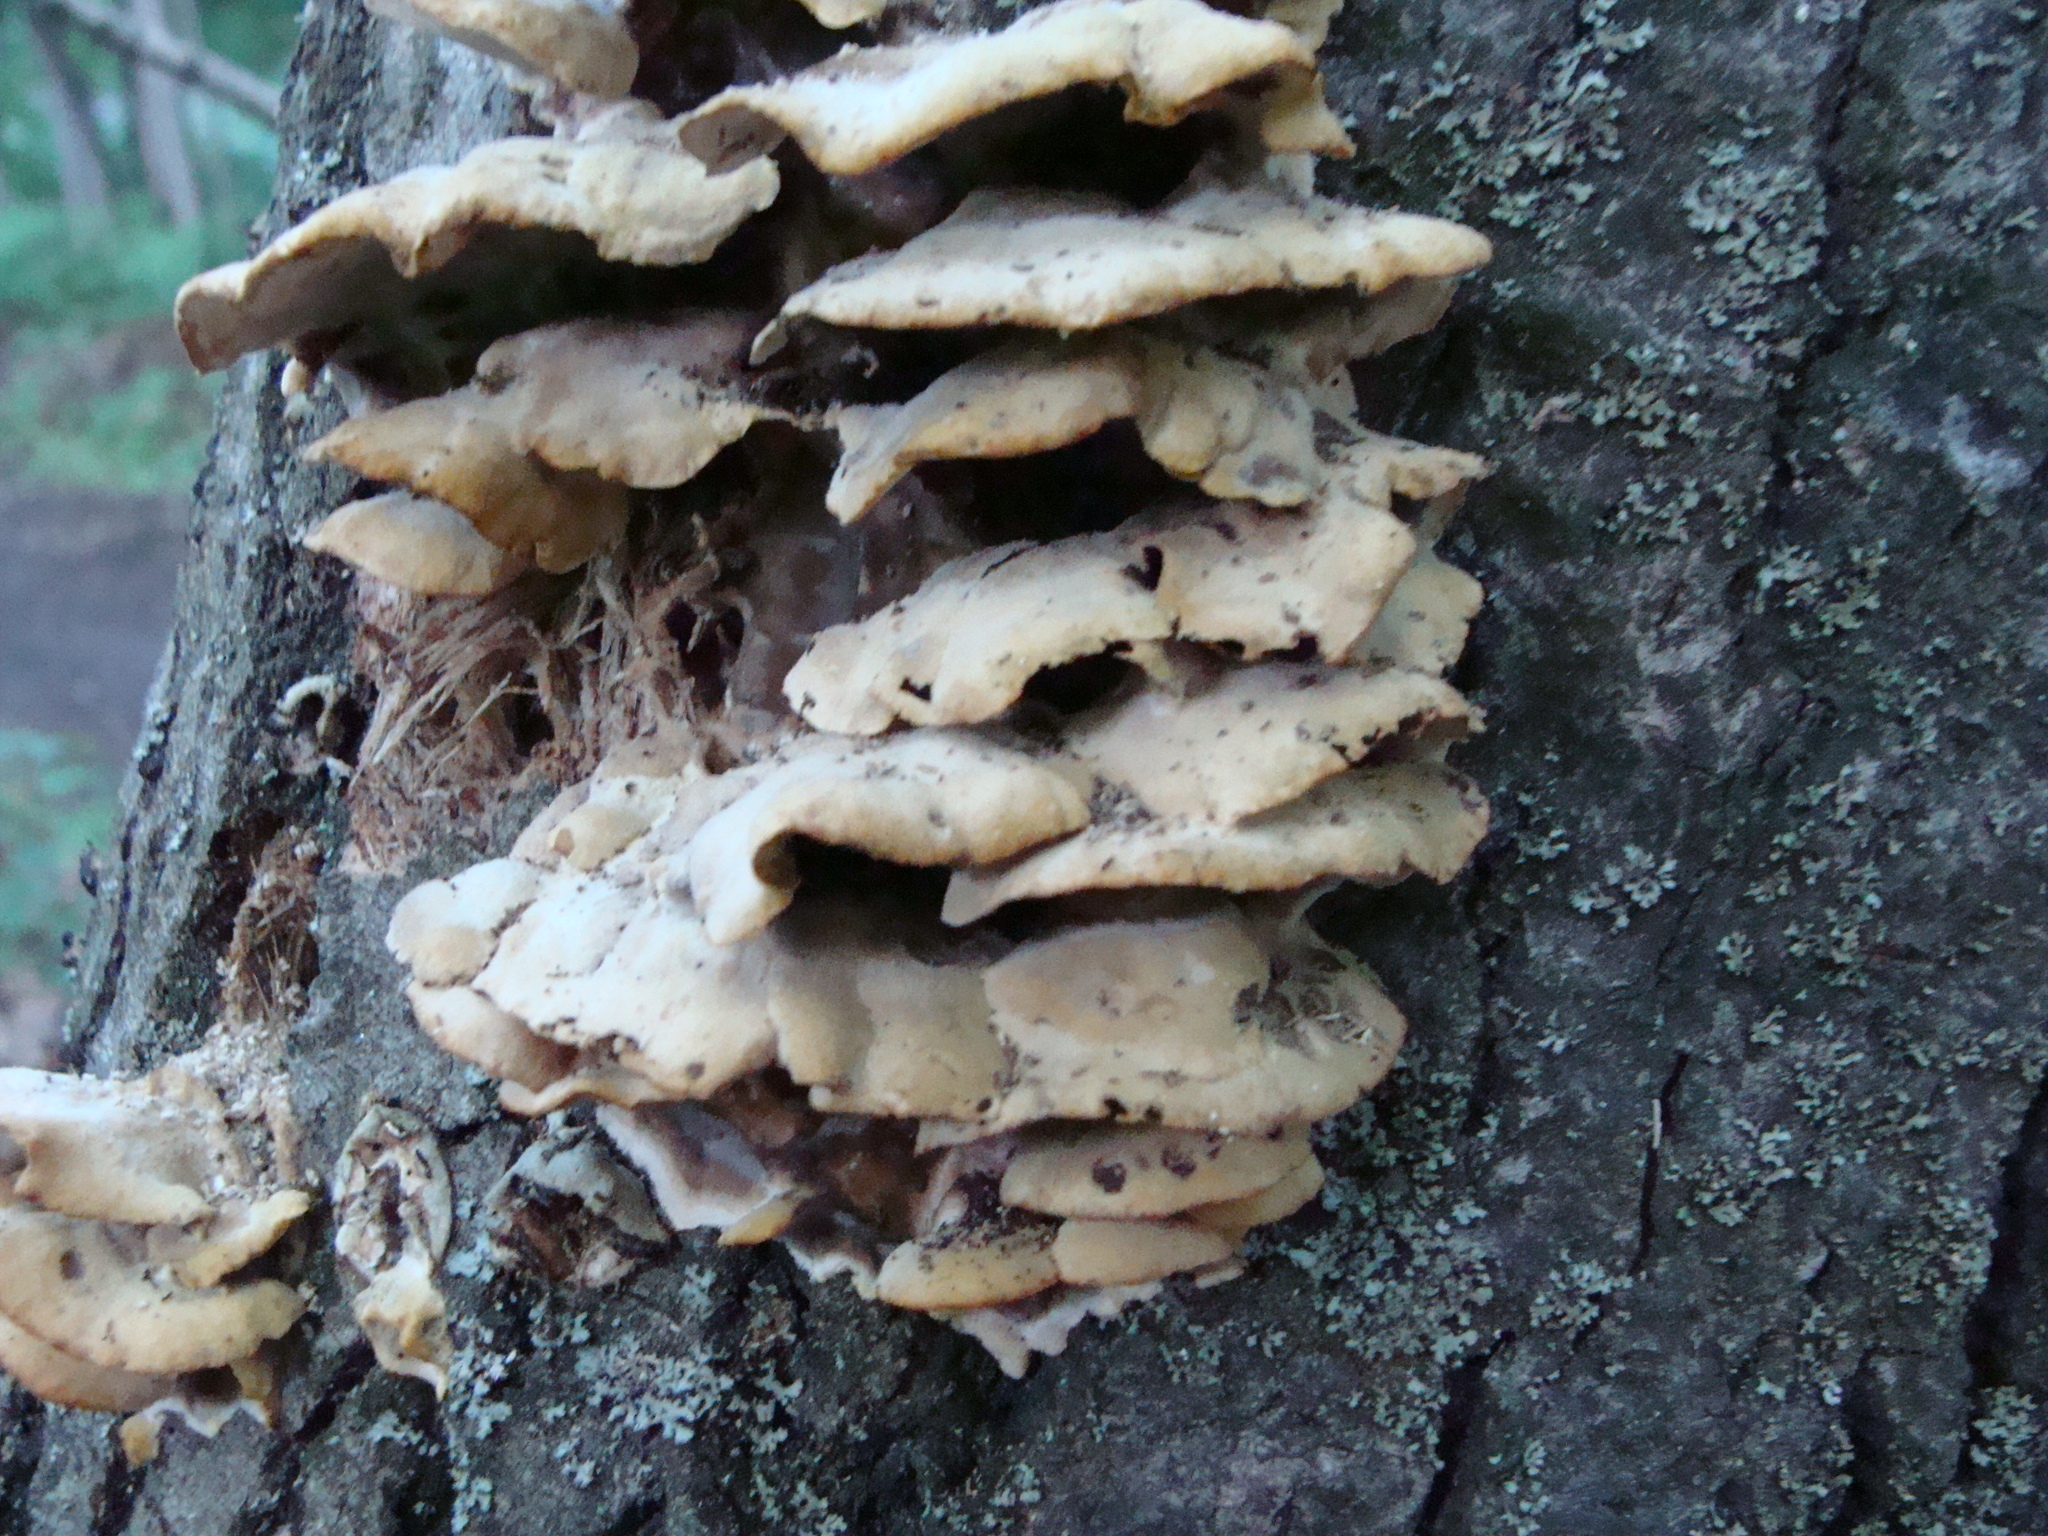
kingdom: Fungi
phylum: Basidiomycota
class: Agaricomycetes
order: Polyporales
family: Phanerochaetaceae
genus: Bjerkandera
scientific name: Bjerkandera adusta
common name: Smoky bracket
